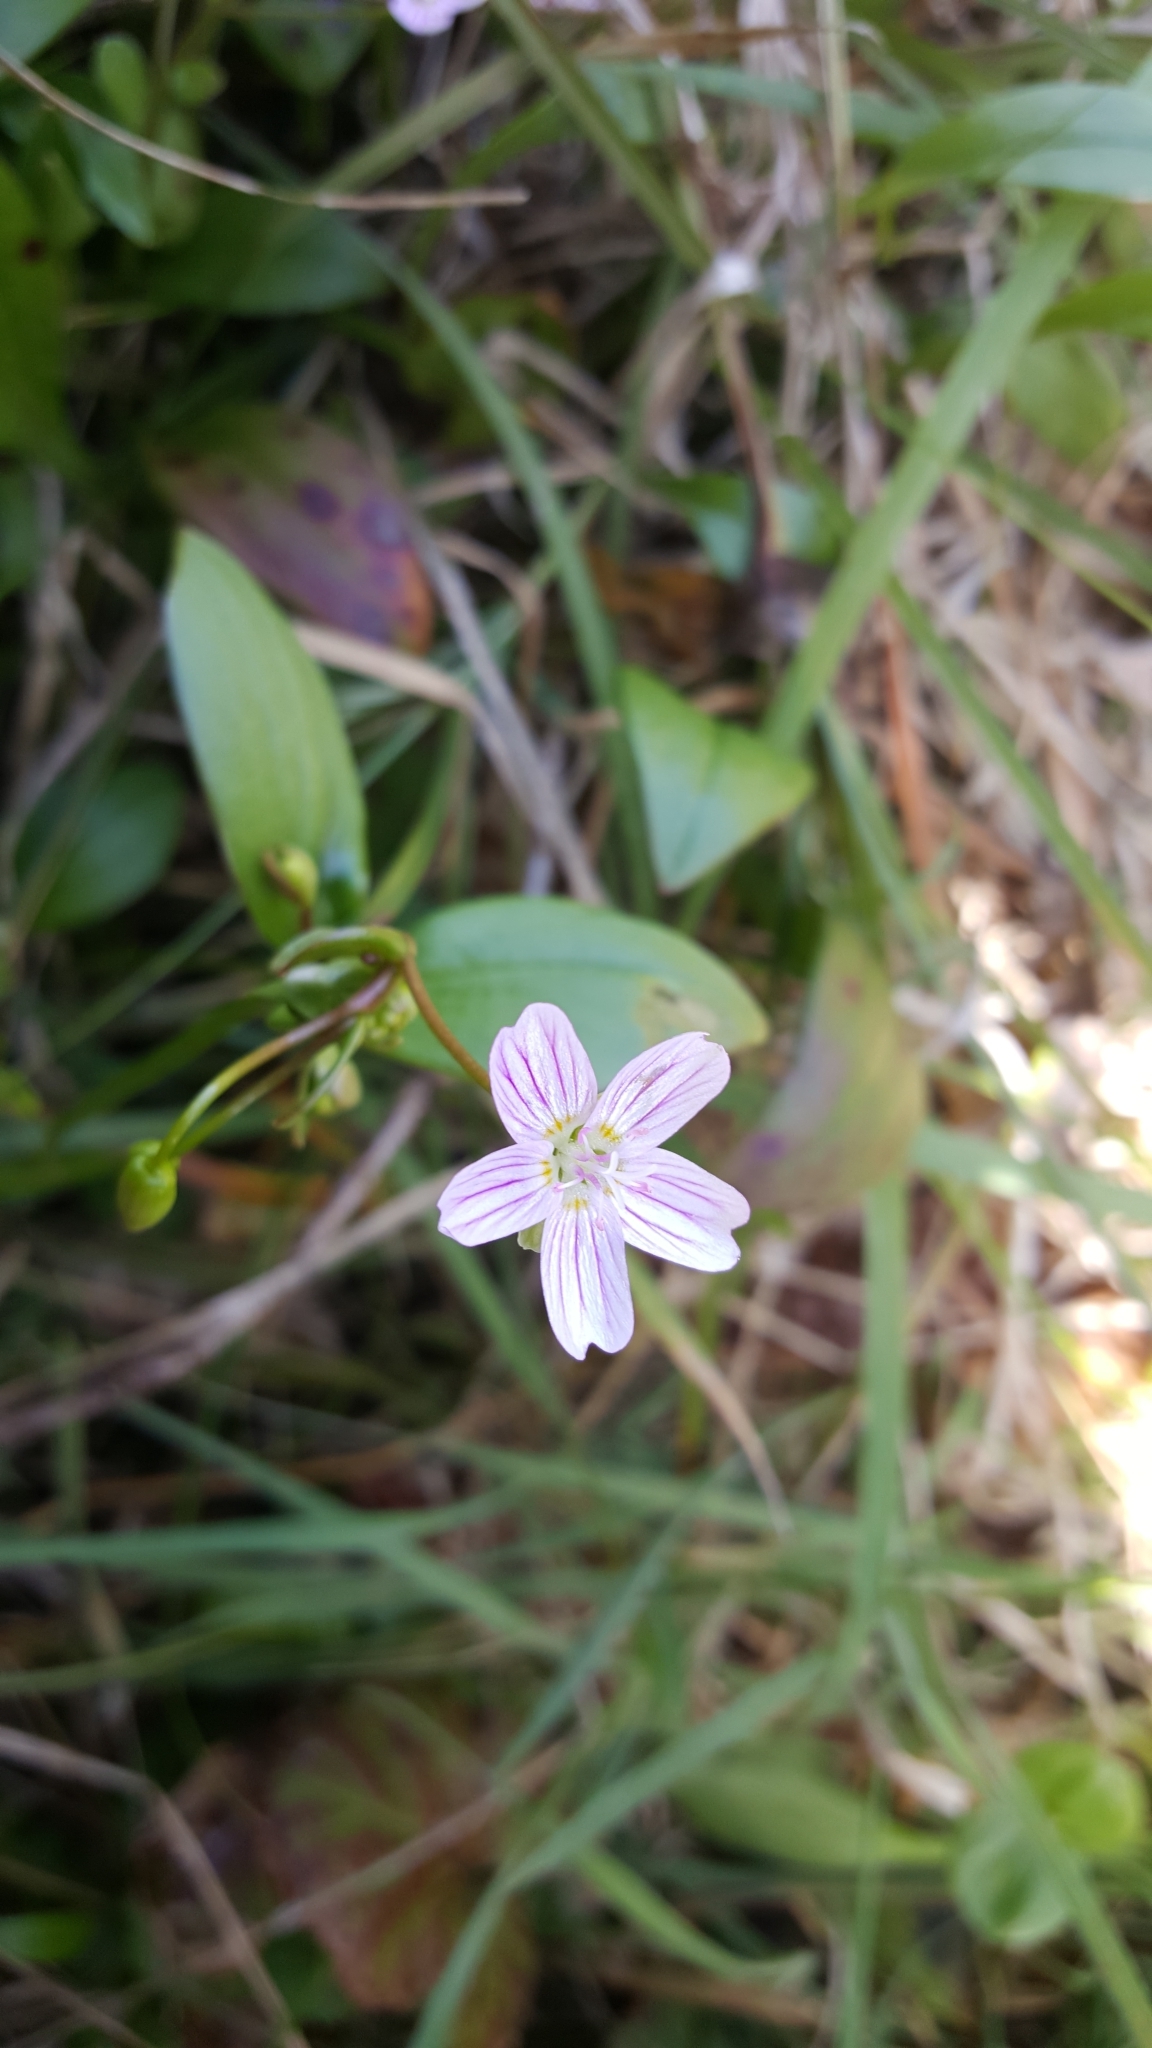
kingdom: Plantae
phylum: Tracheophyta
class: Magnoliopsida
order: Caryophyllales
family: Montiaceae
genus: Claytonia
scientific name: Claytonia sibirica
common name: Pink purslane
